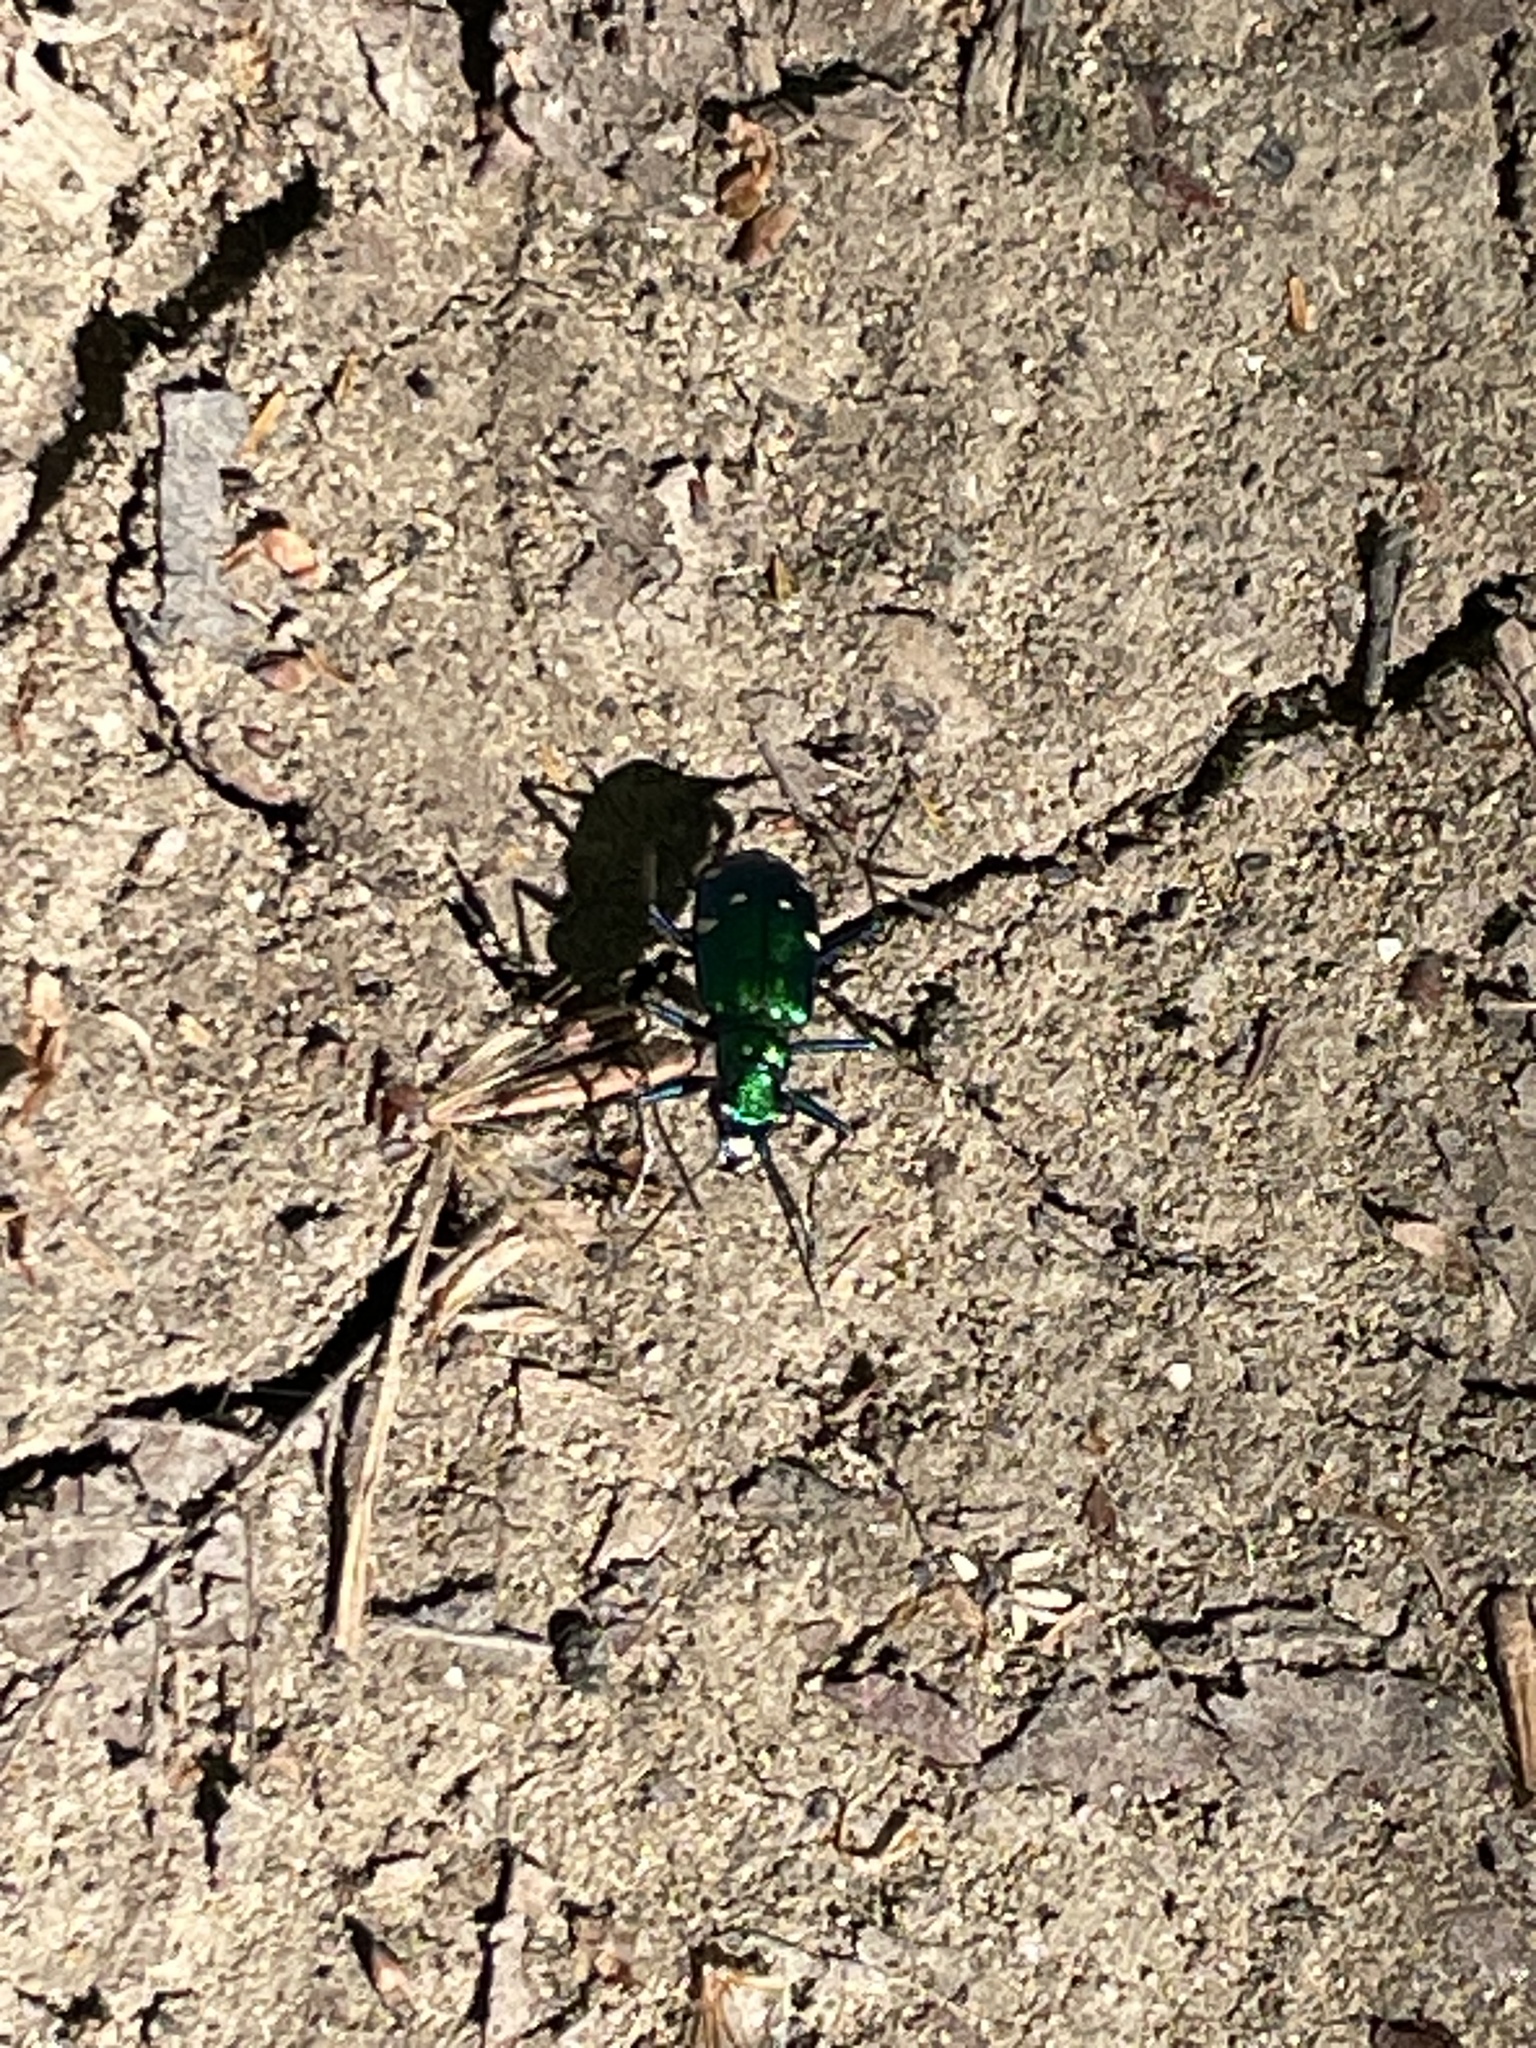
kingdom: Animalia
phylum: Arthropoda
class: Insecta
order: Coleoptera
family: Carabidae
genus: Cicindela
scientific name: Cicindela sexguttata
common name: Six-spotted tiger beetle
